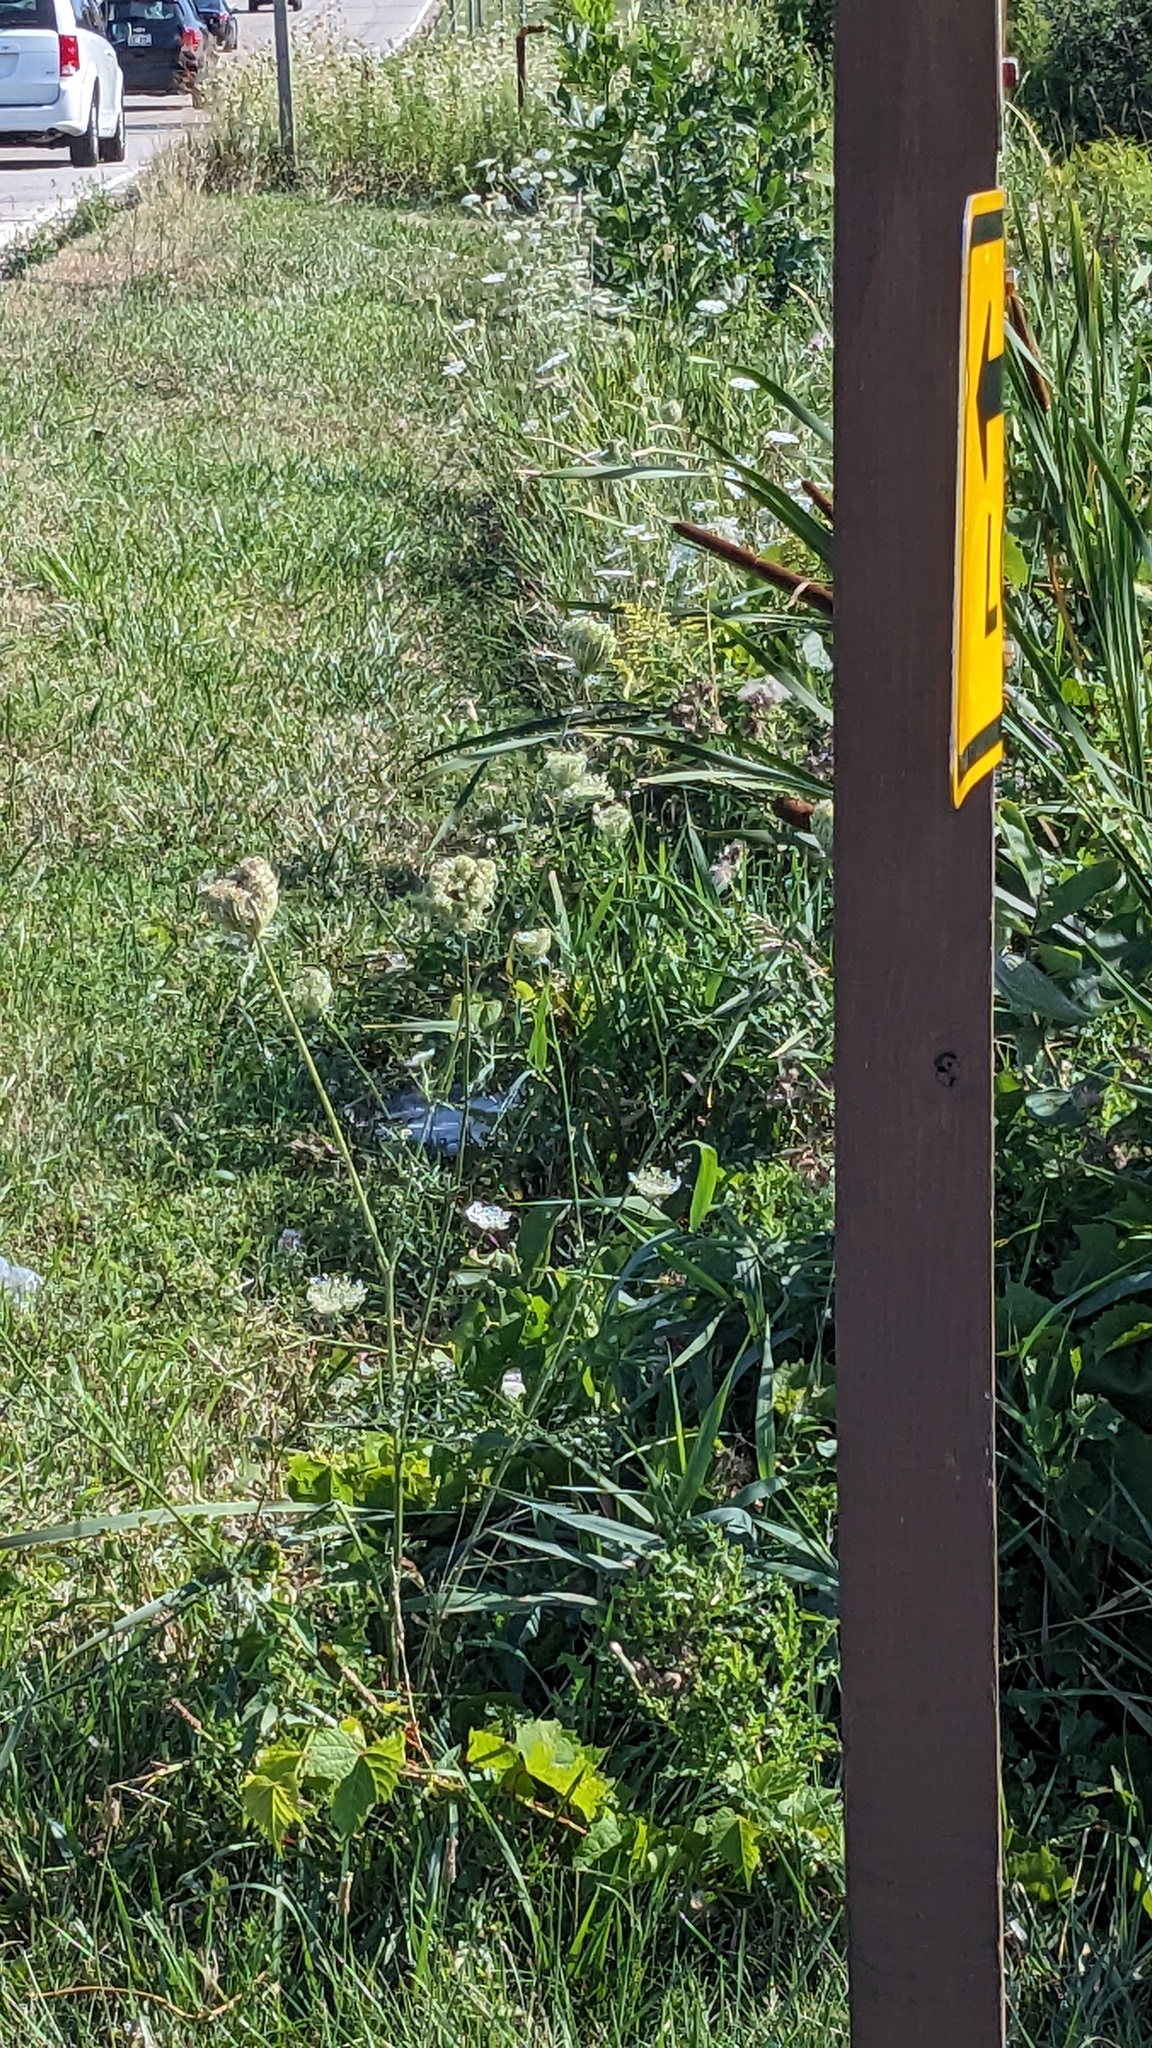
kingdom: Plantae
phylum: Tracheophyta
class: Magnoliopsida
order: Apiales
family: Apiaceae
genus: Daucus
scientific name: Daucus carota
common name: Wild carrot
